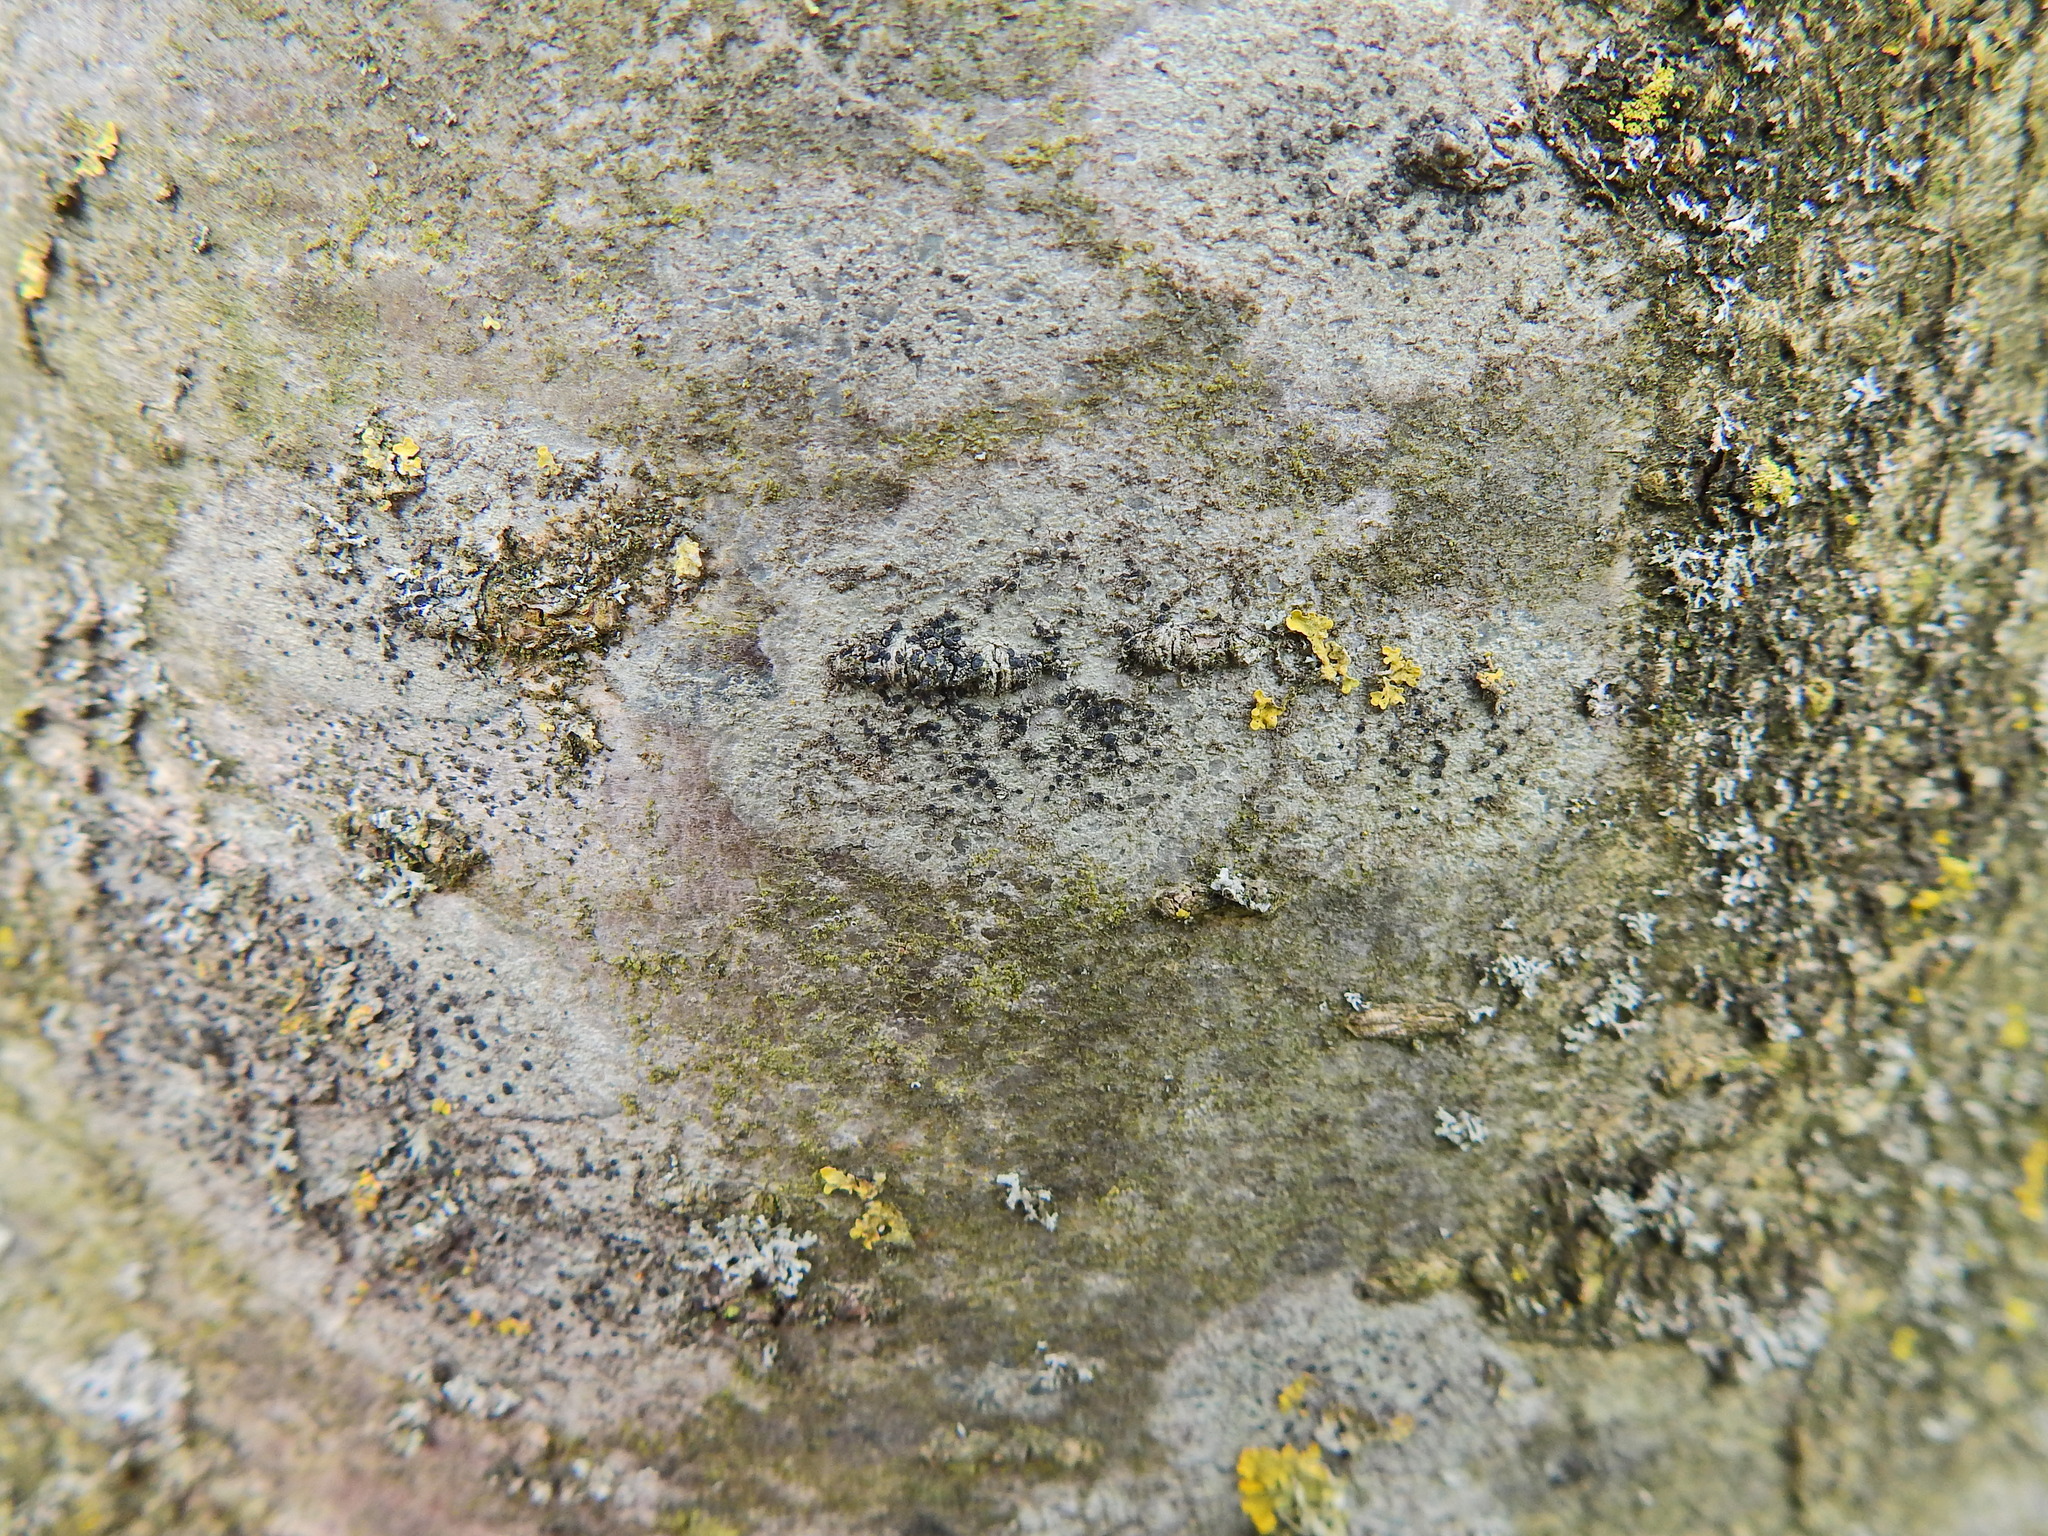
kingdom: Fungi
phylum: Ascomycota
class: Lecanoromycetes
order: Lecanorales
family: Lecanoraceae
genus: Lecidella
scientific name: Lecidella elaeochroma
